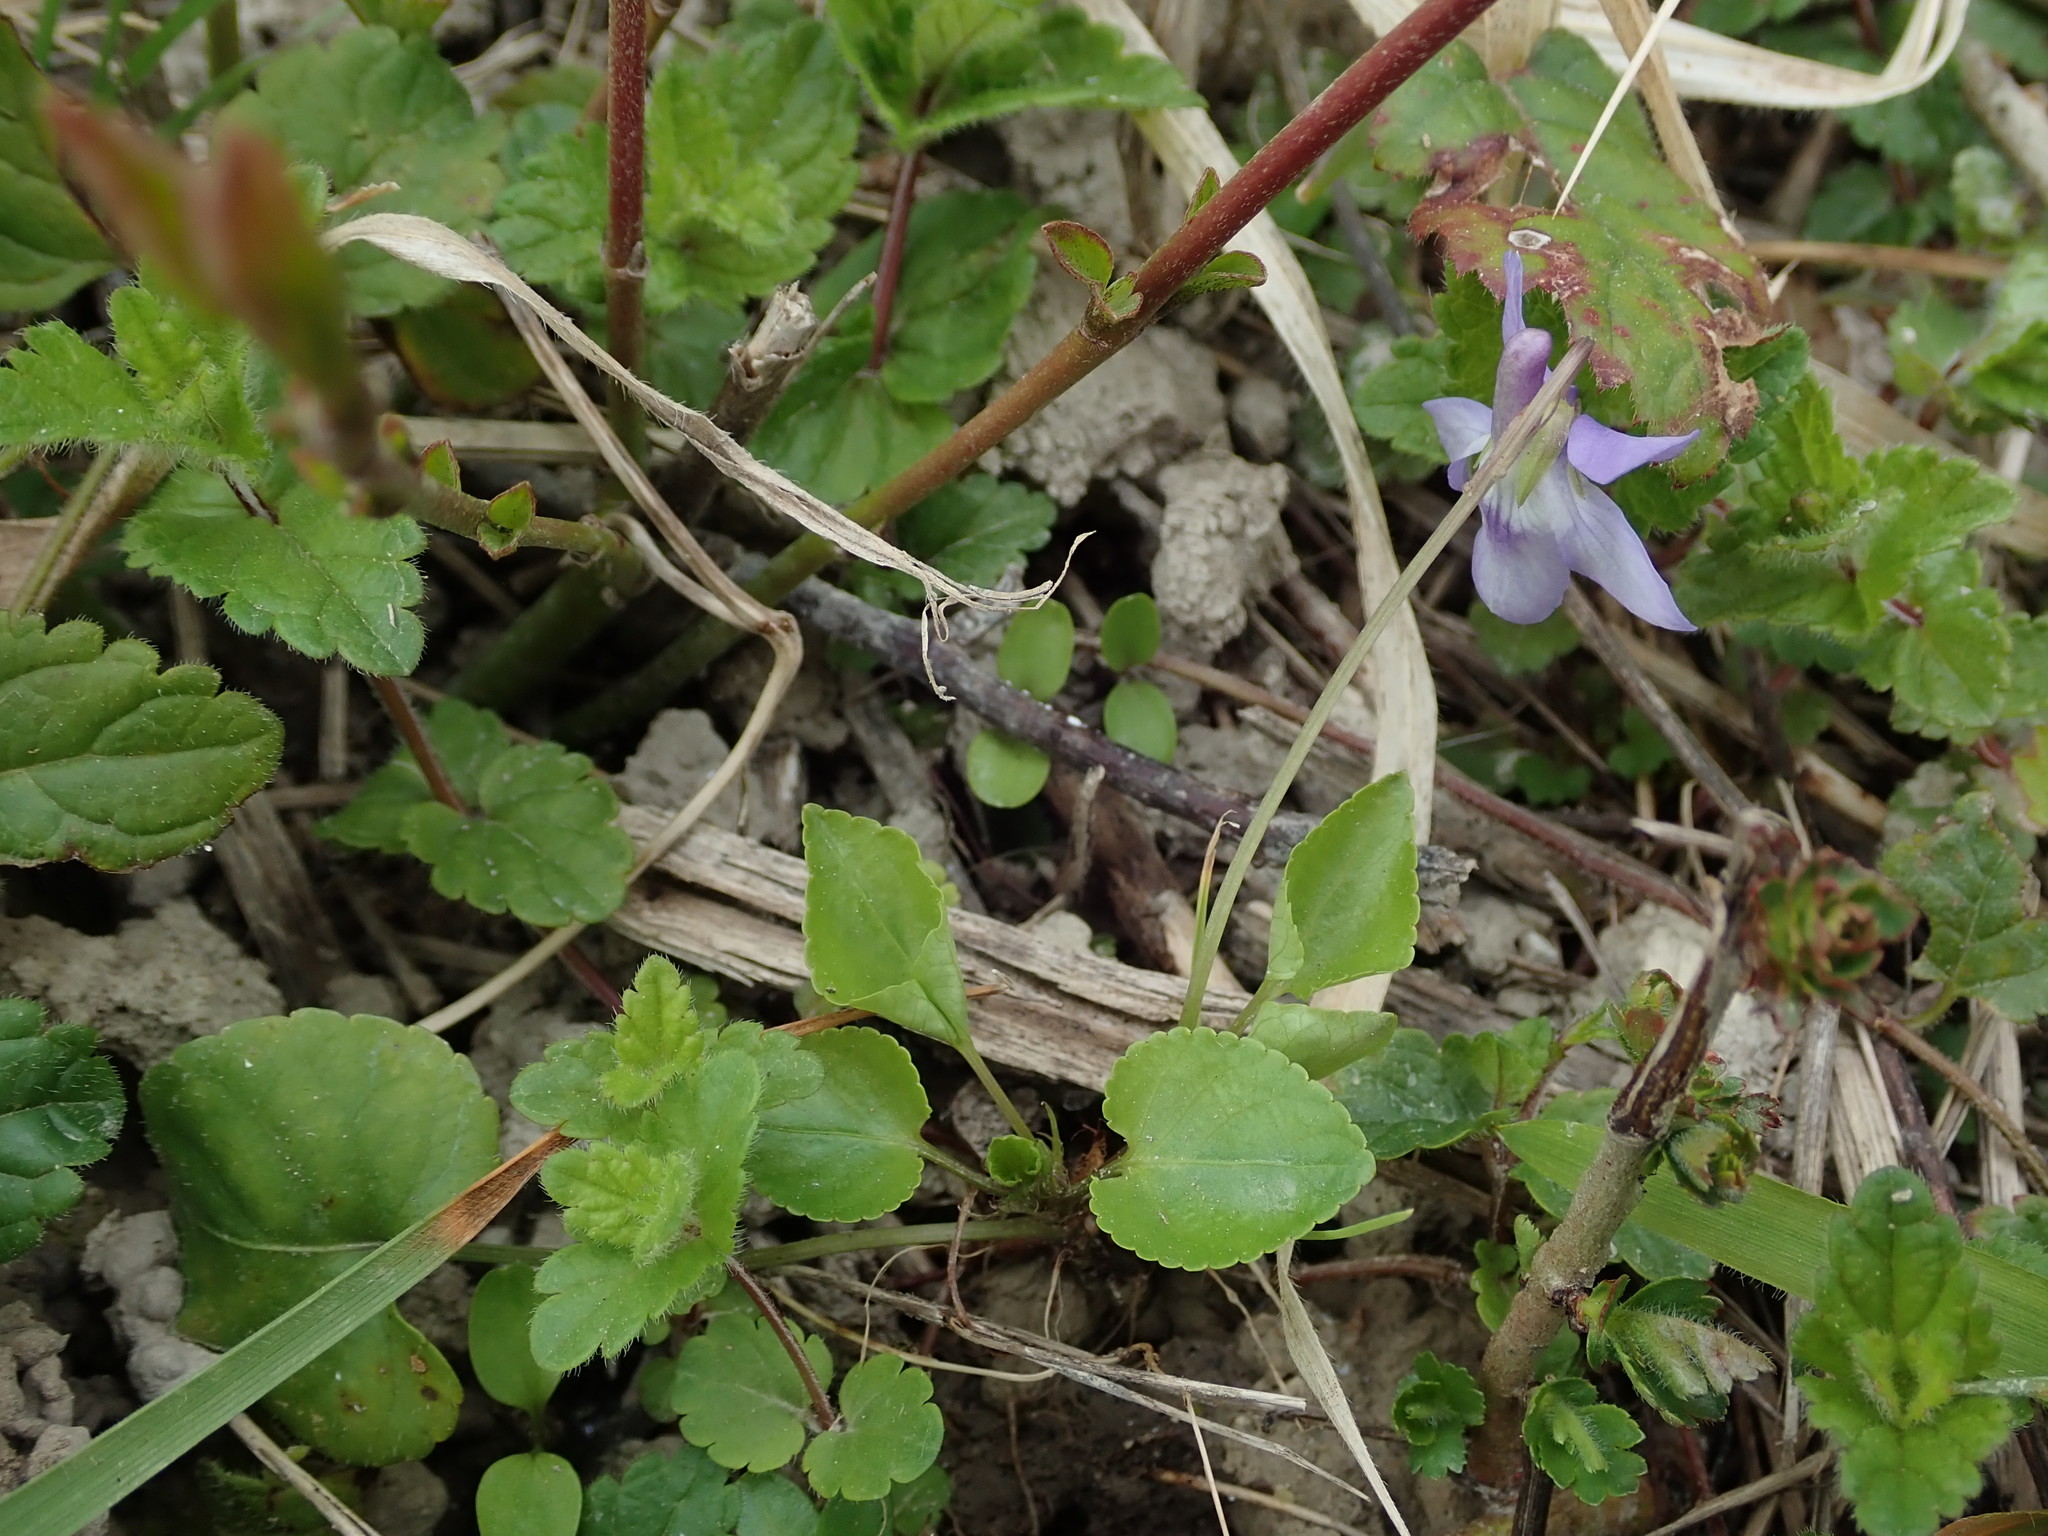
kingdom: Plantae
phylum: Tracheophyta
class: Magnoliopsida
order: Malpighiales
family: Violaceae
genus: Viola
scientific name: Viola reichenbachiana
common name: Early dog-violet
